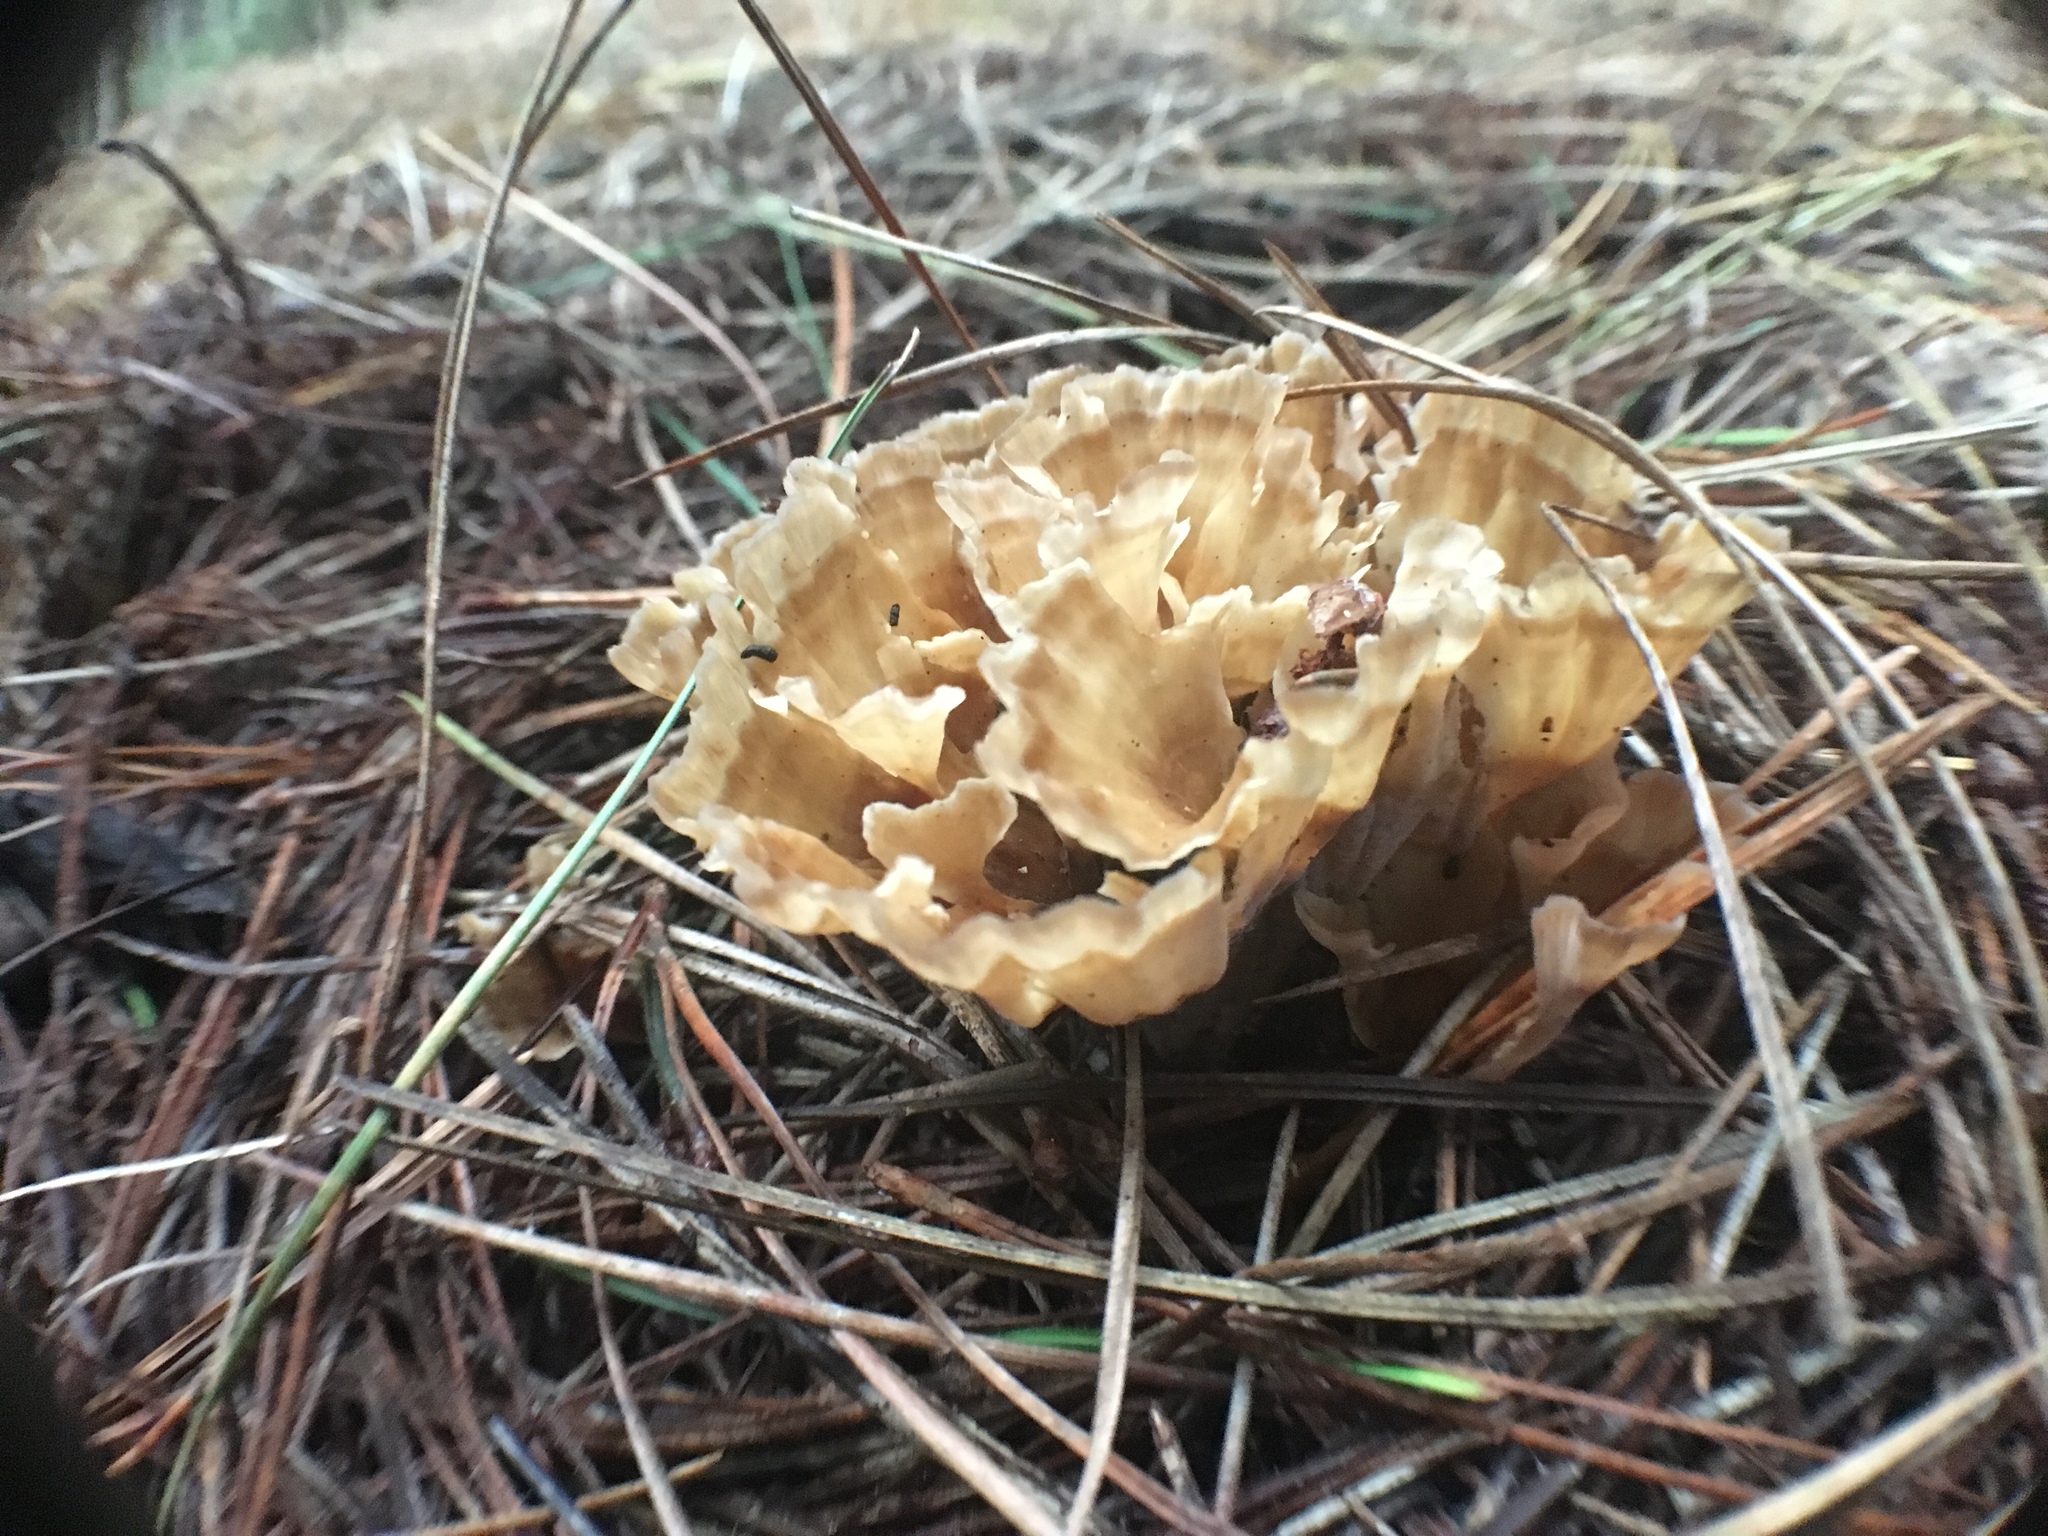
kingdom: Fungi
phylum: Basidiomycota
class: Agaricomycetes
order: Polyporales
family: Podoscyphaceae
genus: Podoscypha
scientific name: Podoscypha petalodes
